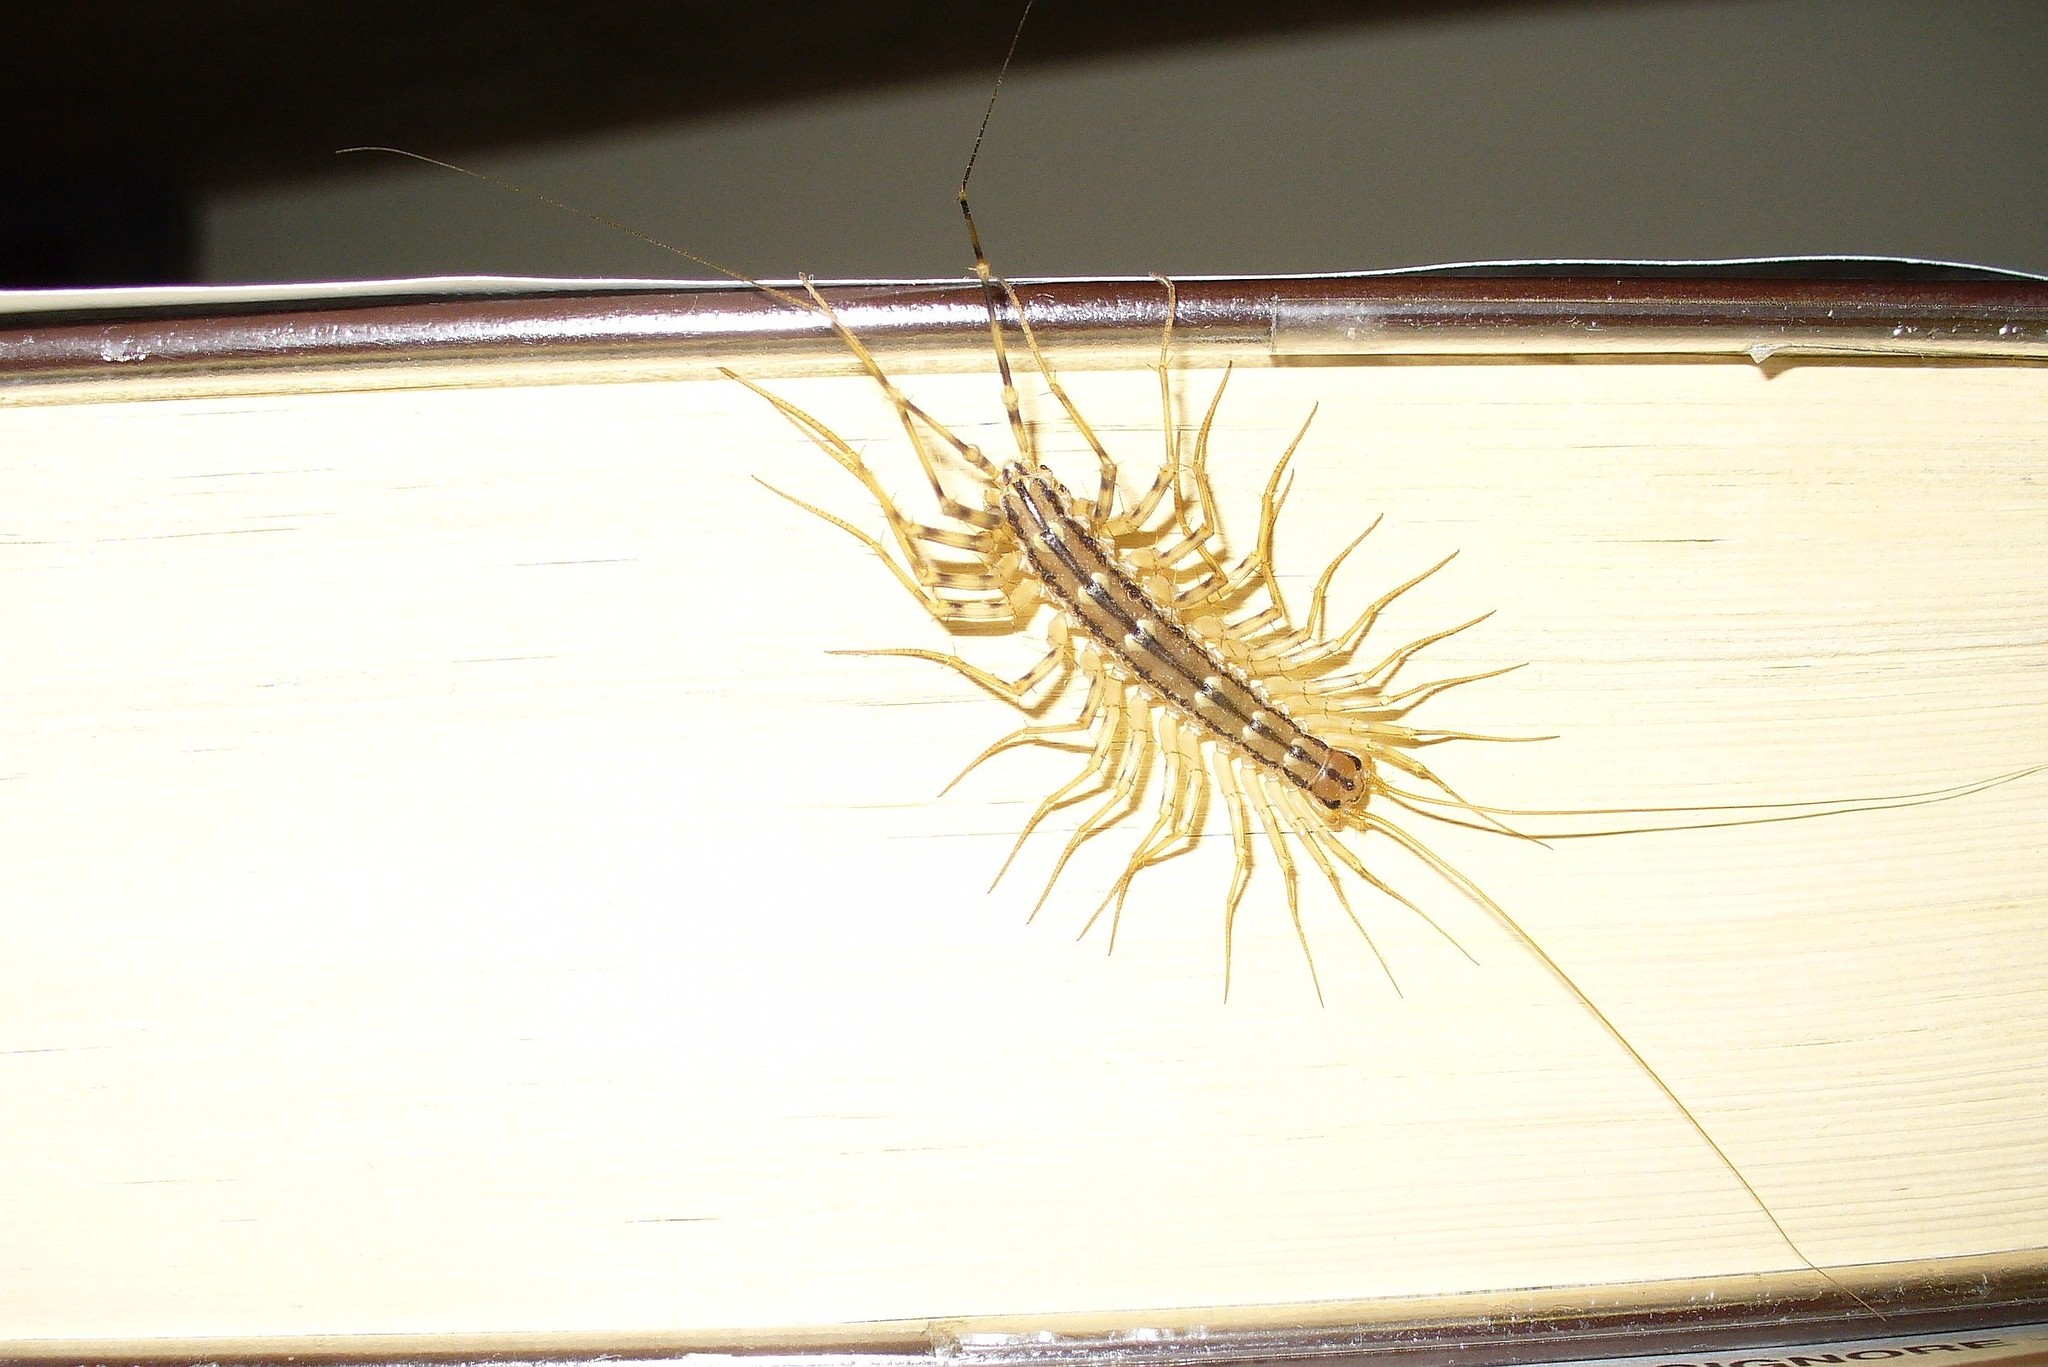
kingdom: Animalia
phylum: Arthropoda
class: Chilopoda
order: Scutigeromorpha
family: Scutigeridae
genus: Scutigera
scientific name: Scutigera coleoptrata
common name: House centipede
